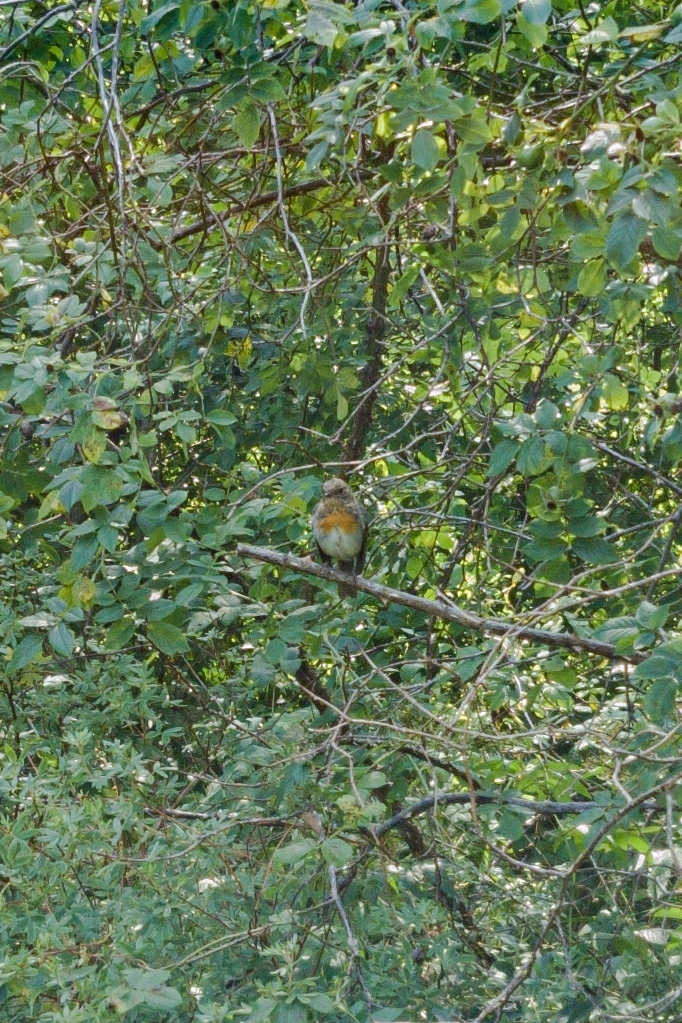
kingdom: Animalia
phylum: Chordata
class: Aves
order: Passeriformes
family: Muscicapidae
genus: Erithacus
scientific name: Erithacus rubecula
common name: European robin
